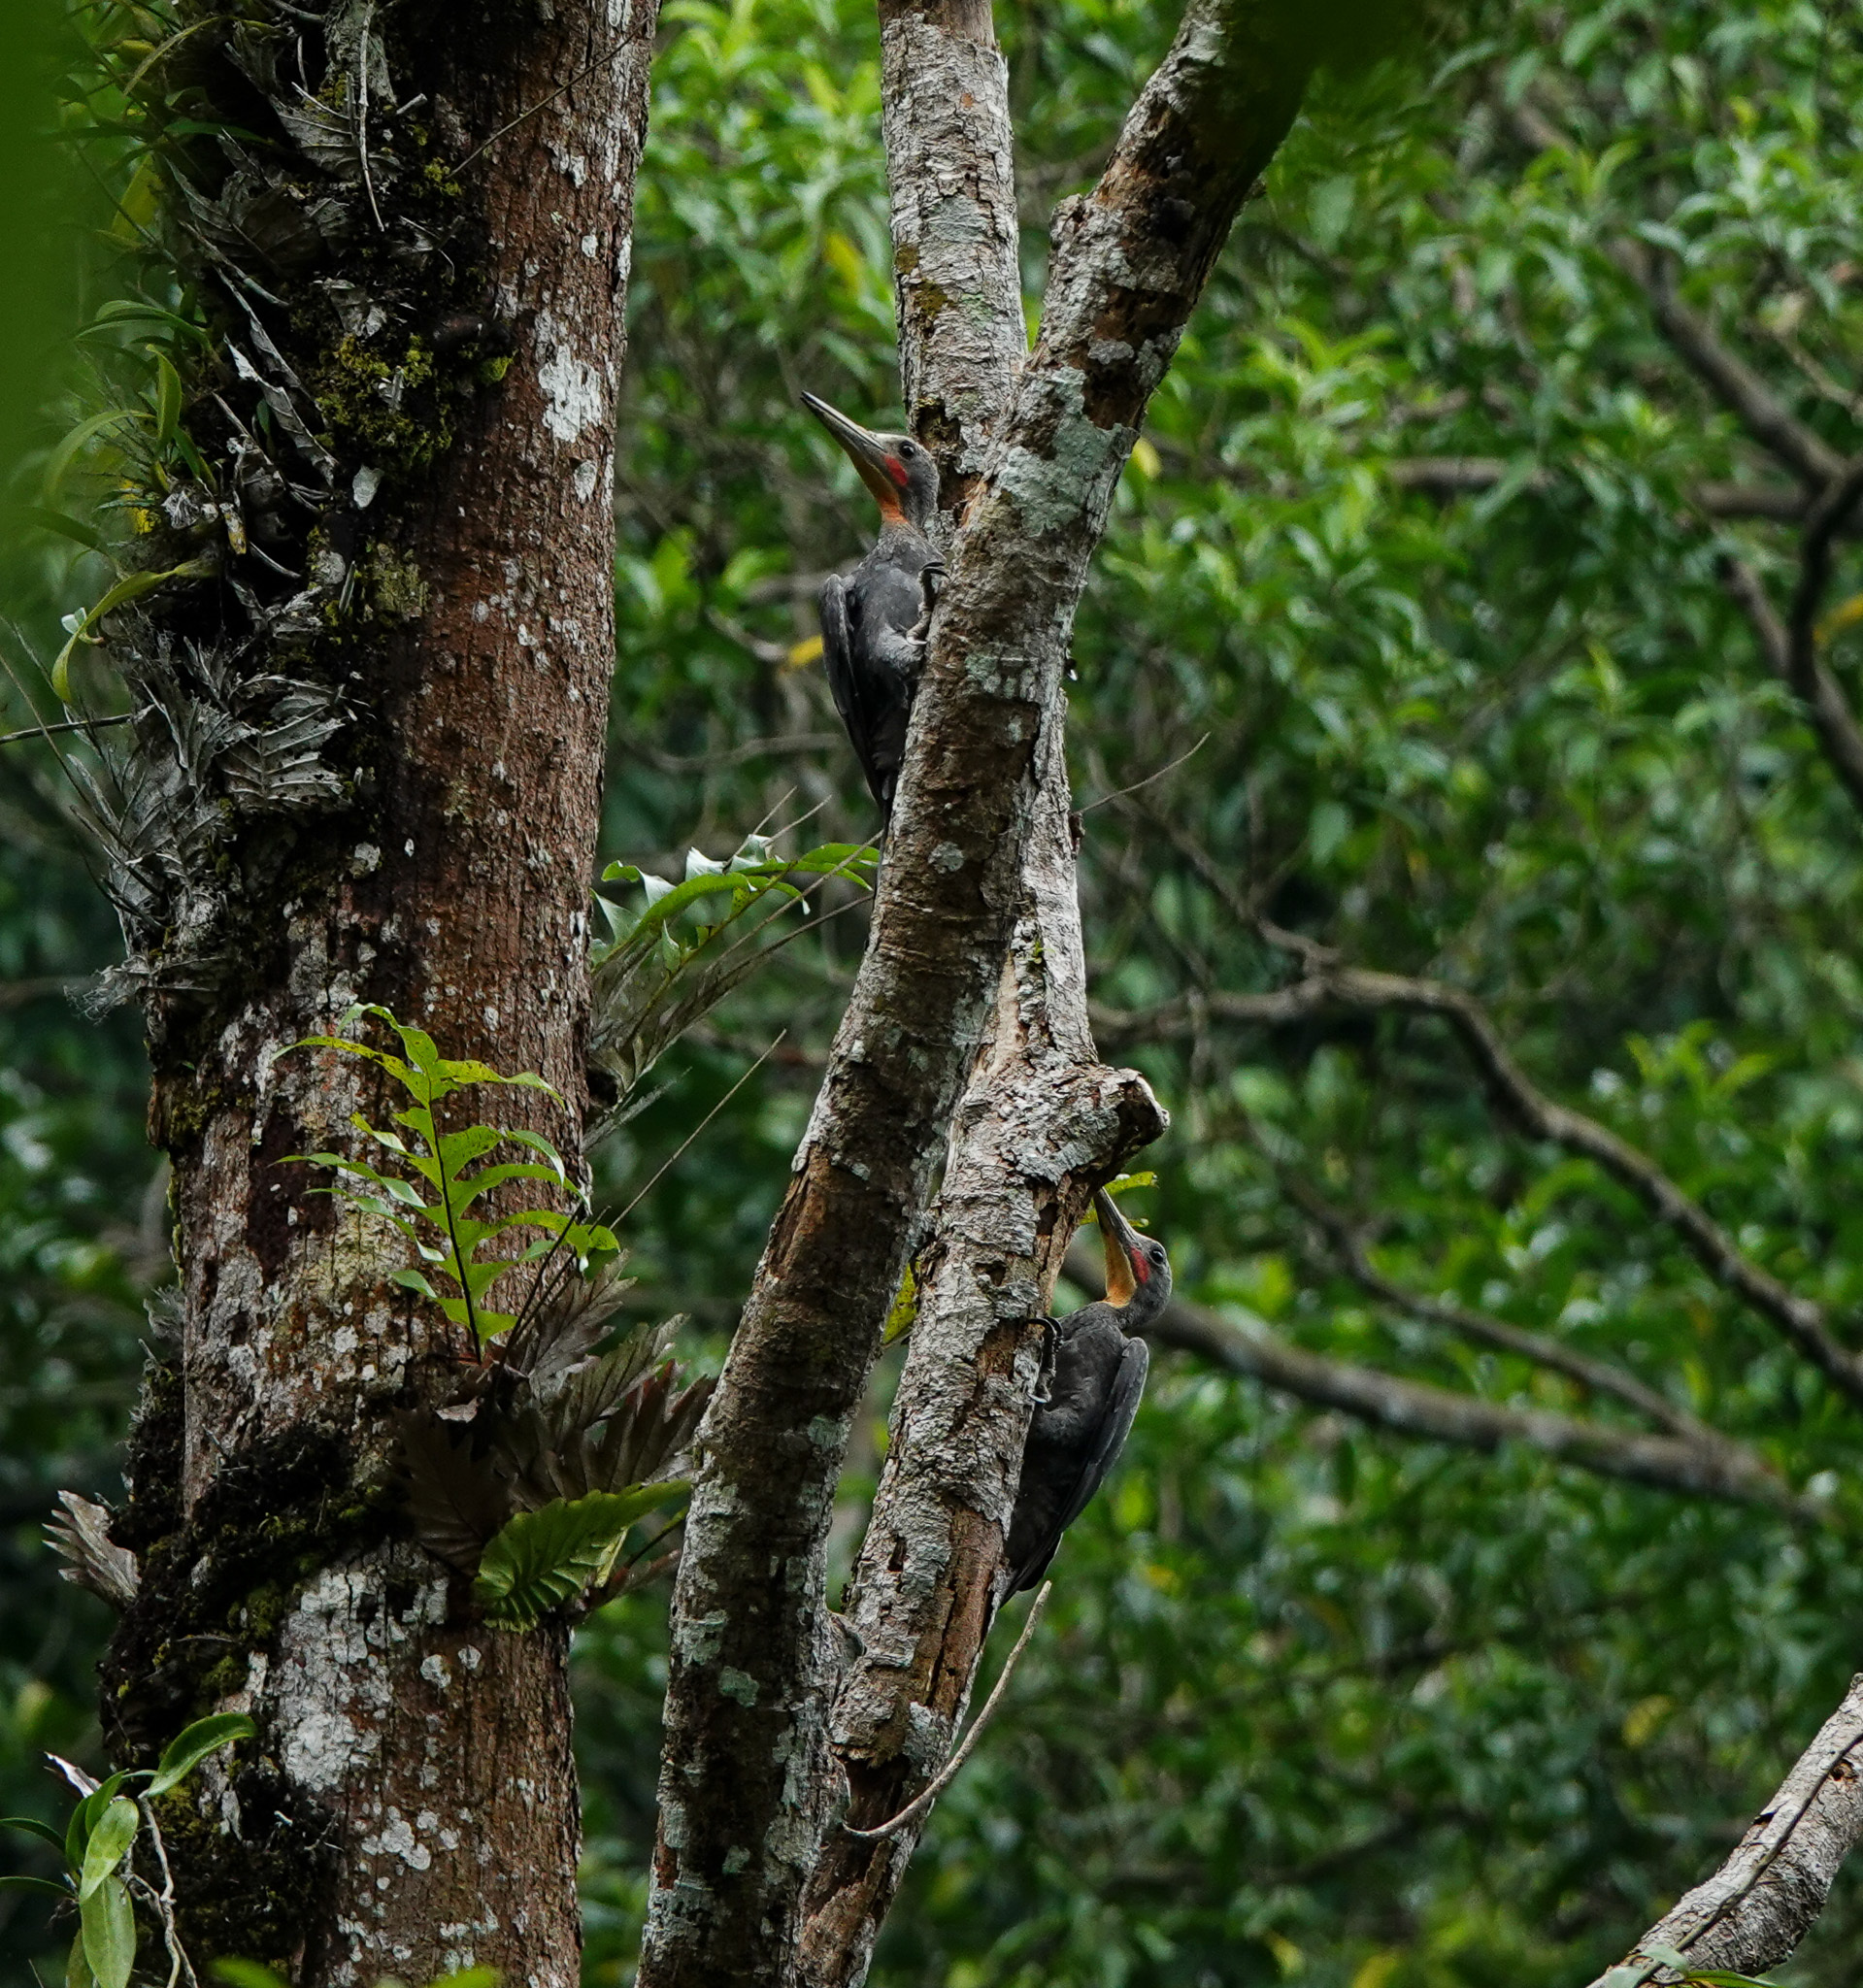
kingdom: Animalia
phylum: Chordata
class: Aves
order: Piciformes
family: Picidae
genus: Mulleripicus
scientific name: Mulleripicus pulverulentus
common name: Great slaty woodpecker
